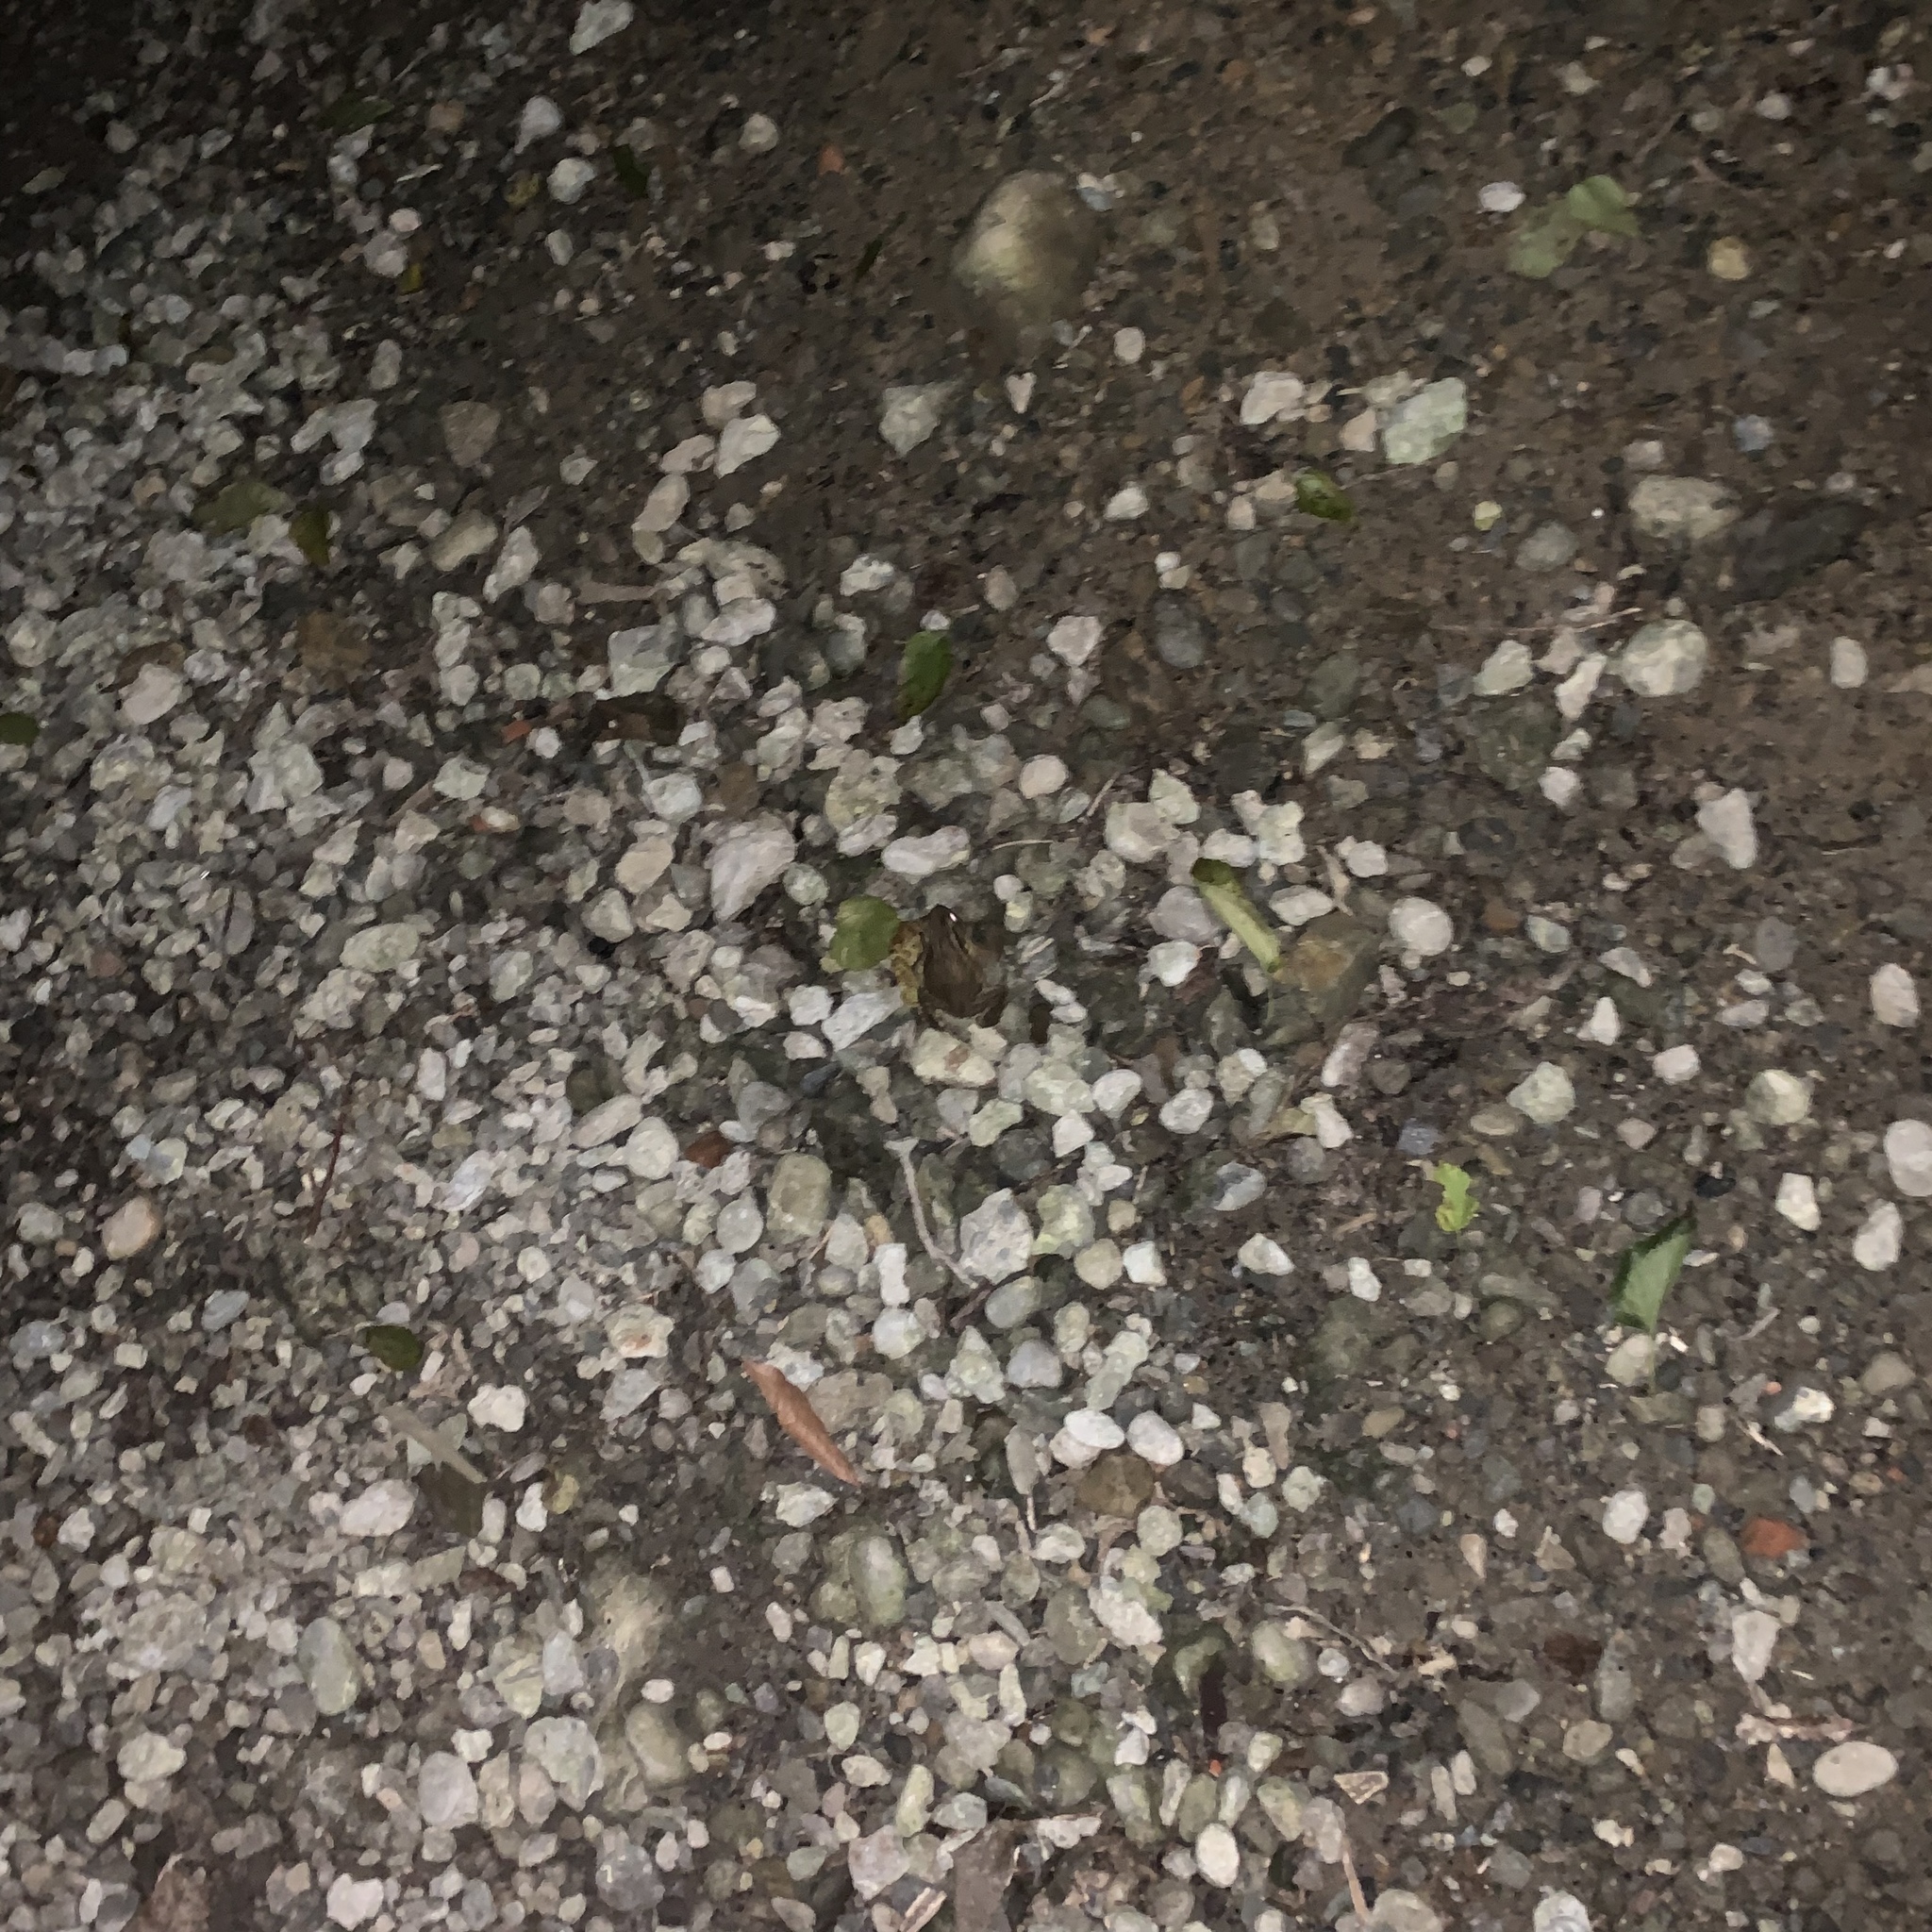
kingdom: Animalia
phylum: Chordata
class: Amphibia
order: Anura
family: Bufonidae
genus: Bufo
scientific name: Bufo bankorensis
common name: Bankor toad
